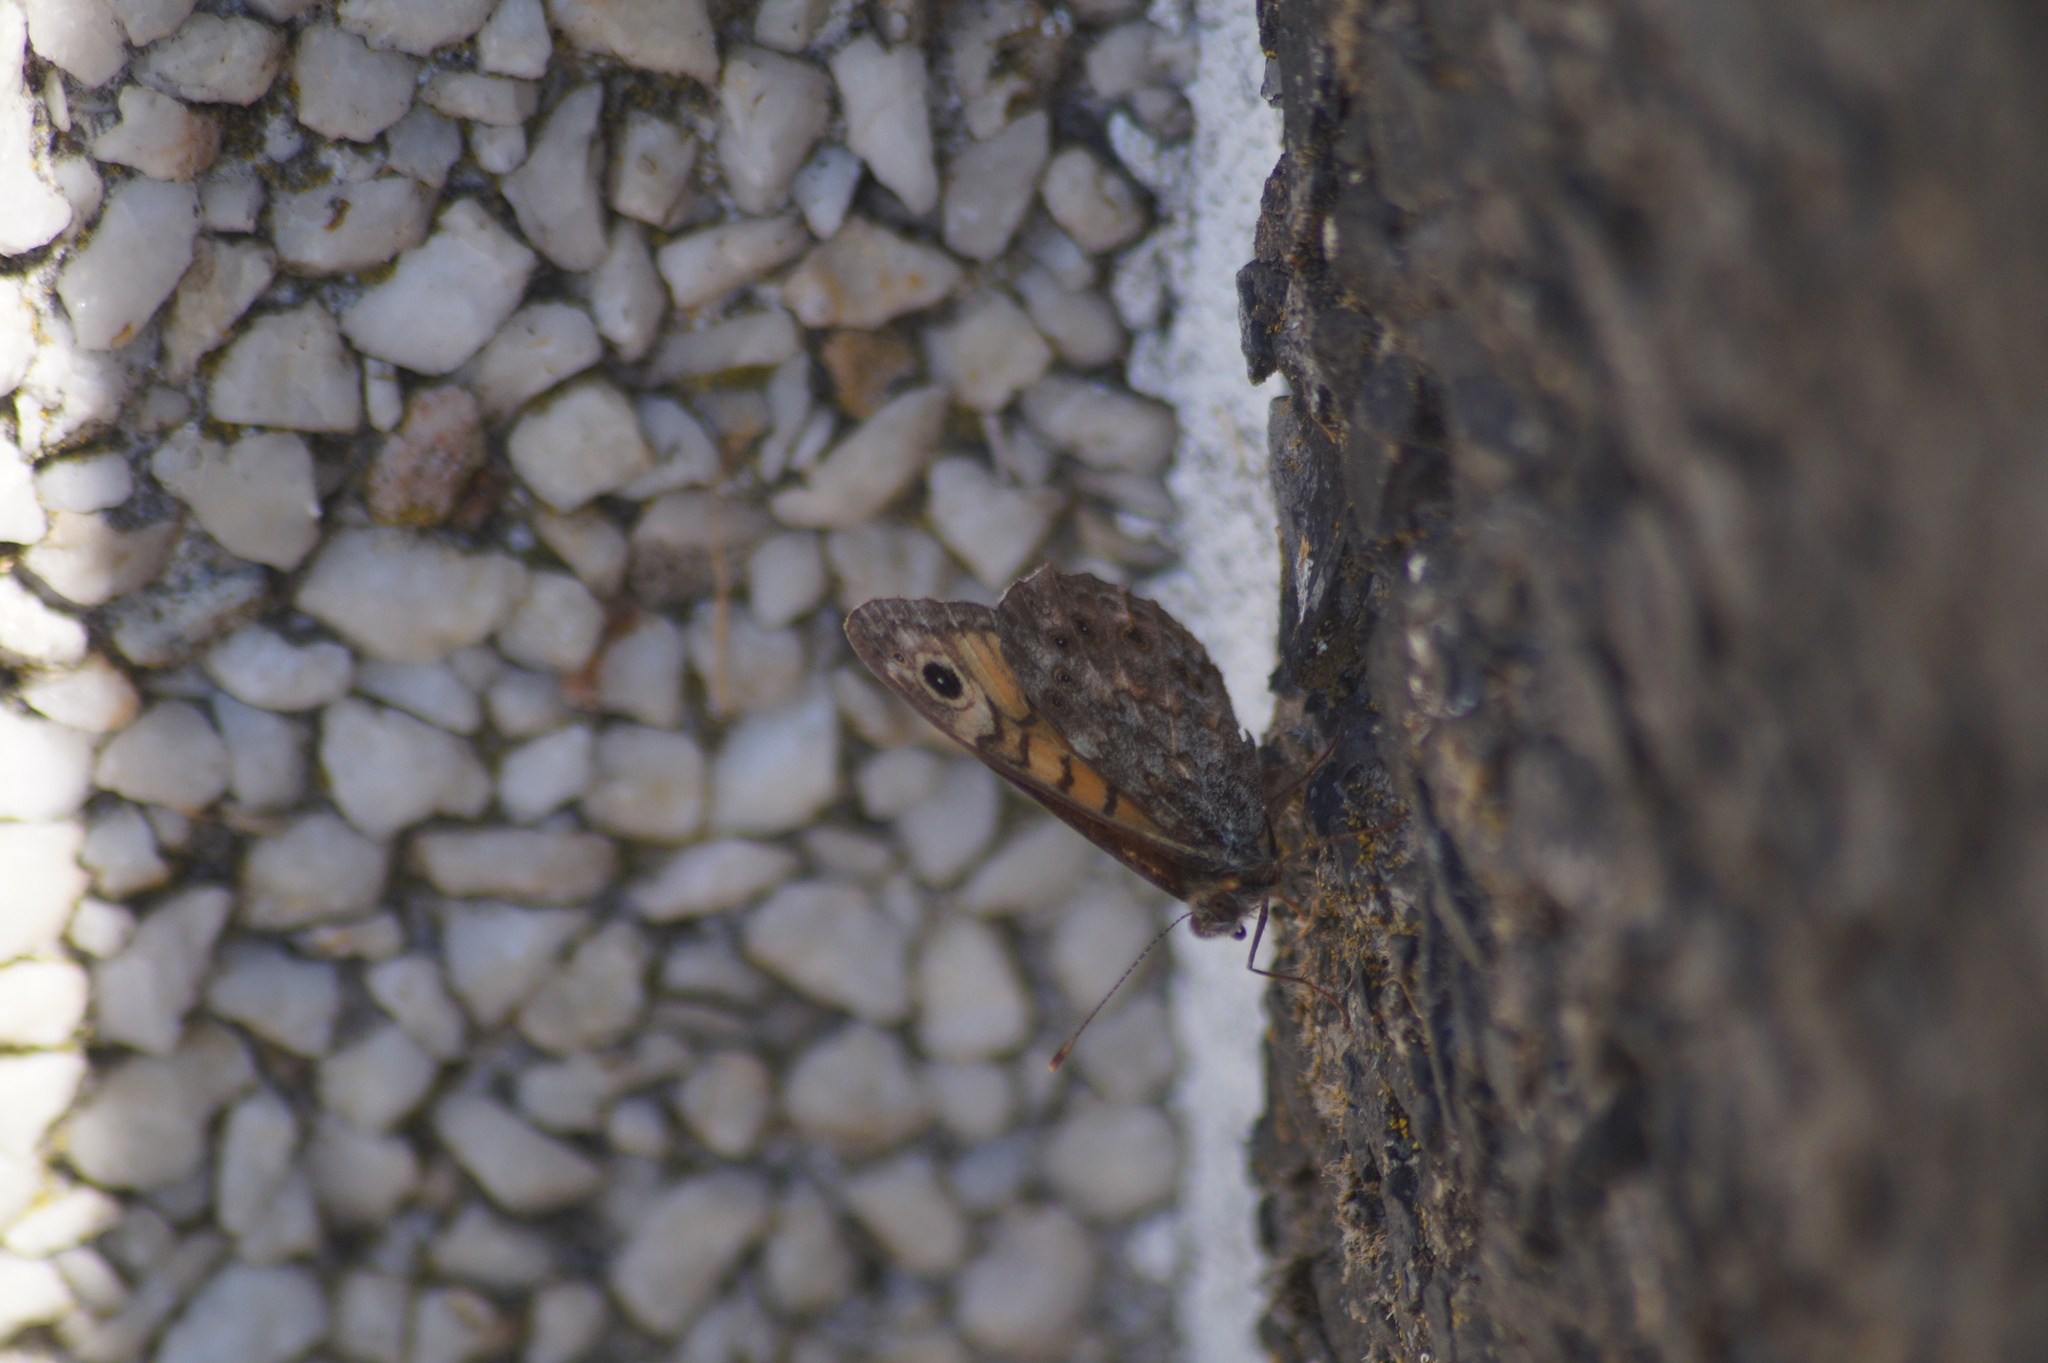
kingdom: Animalia
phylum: Arthropoda
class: Insecta
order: Lepidoptera
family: Nymphalidae
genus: Pararge
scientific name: Pararge Lasiommata megera
